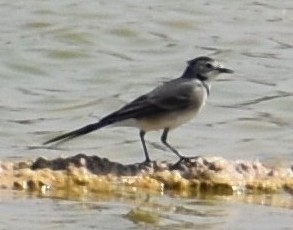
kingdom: Animalia
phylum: Chordata
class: Aves
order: Passeriformes
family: Motacillidae
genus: Motacilla
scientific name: Motacilla alba
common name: White wagtail
